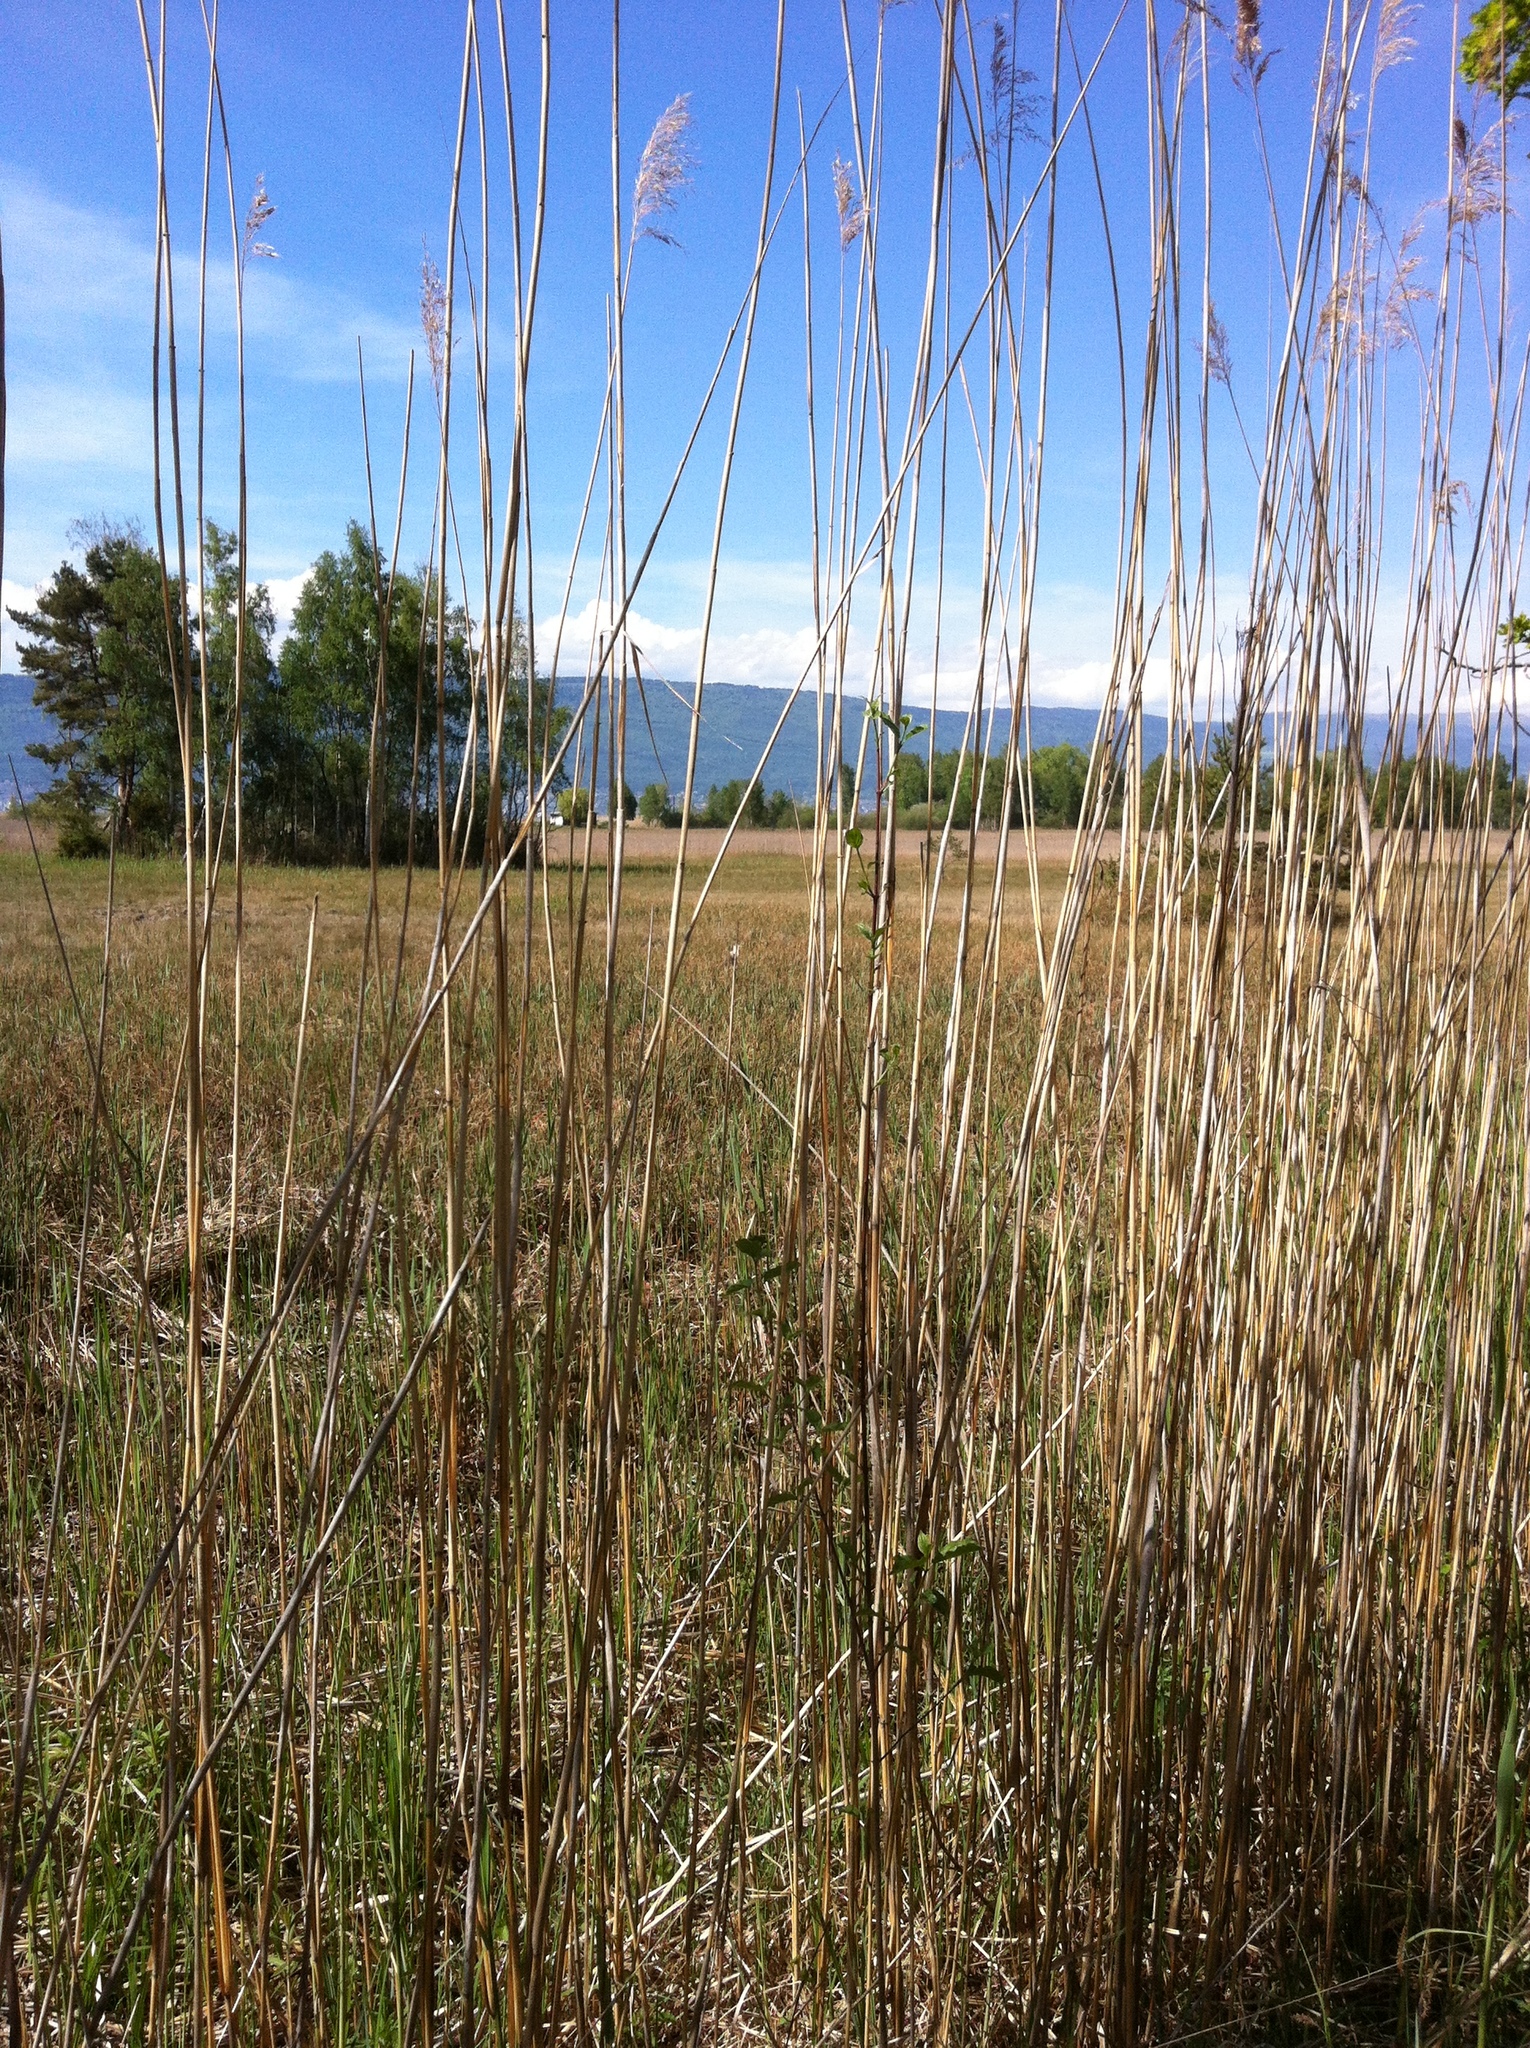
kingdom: Plantae
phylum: Tracheophyta
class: Liliopsida
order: Poales
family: Poaceae
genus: Phragmites
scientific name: Phragmites australis
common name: Common reed
